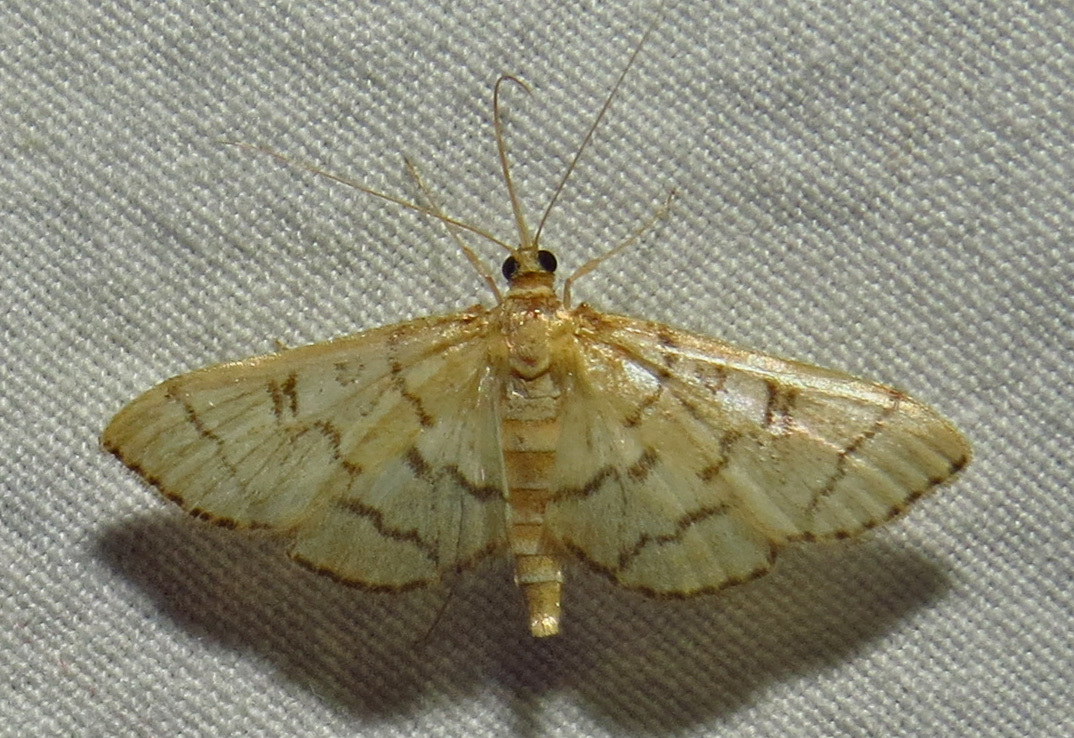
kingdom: Animalia
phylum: Arthropoda
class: Insecta
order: Lepidoptera
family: Crambidae
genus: Lamprosema
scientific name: Lamprosema Blepharomastix ranalis
